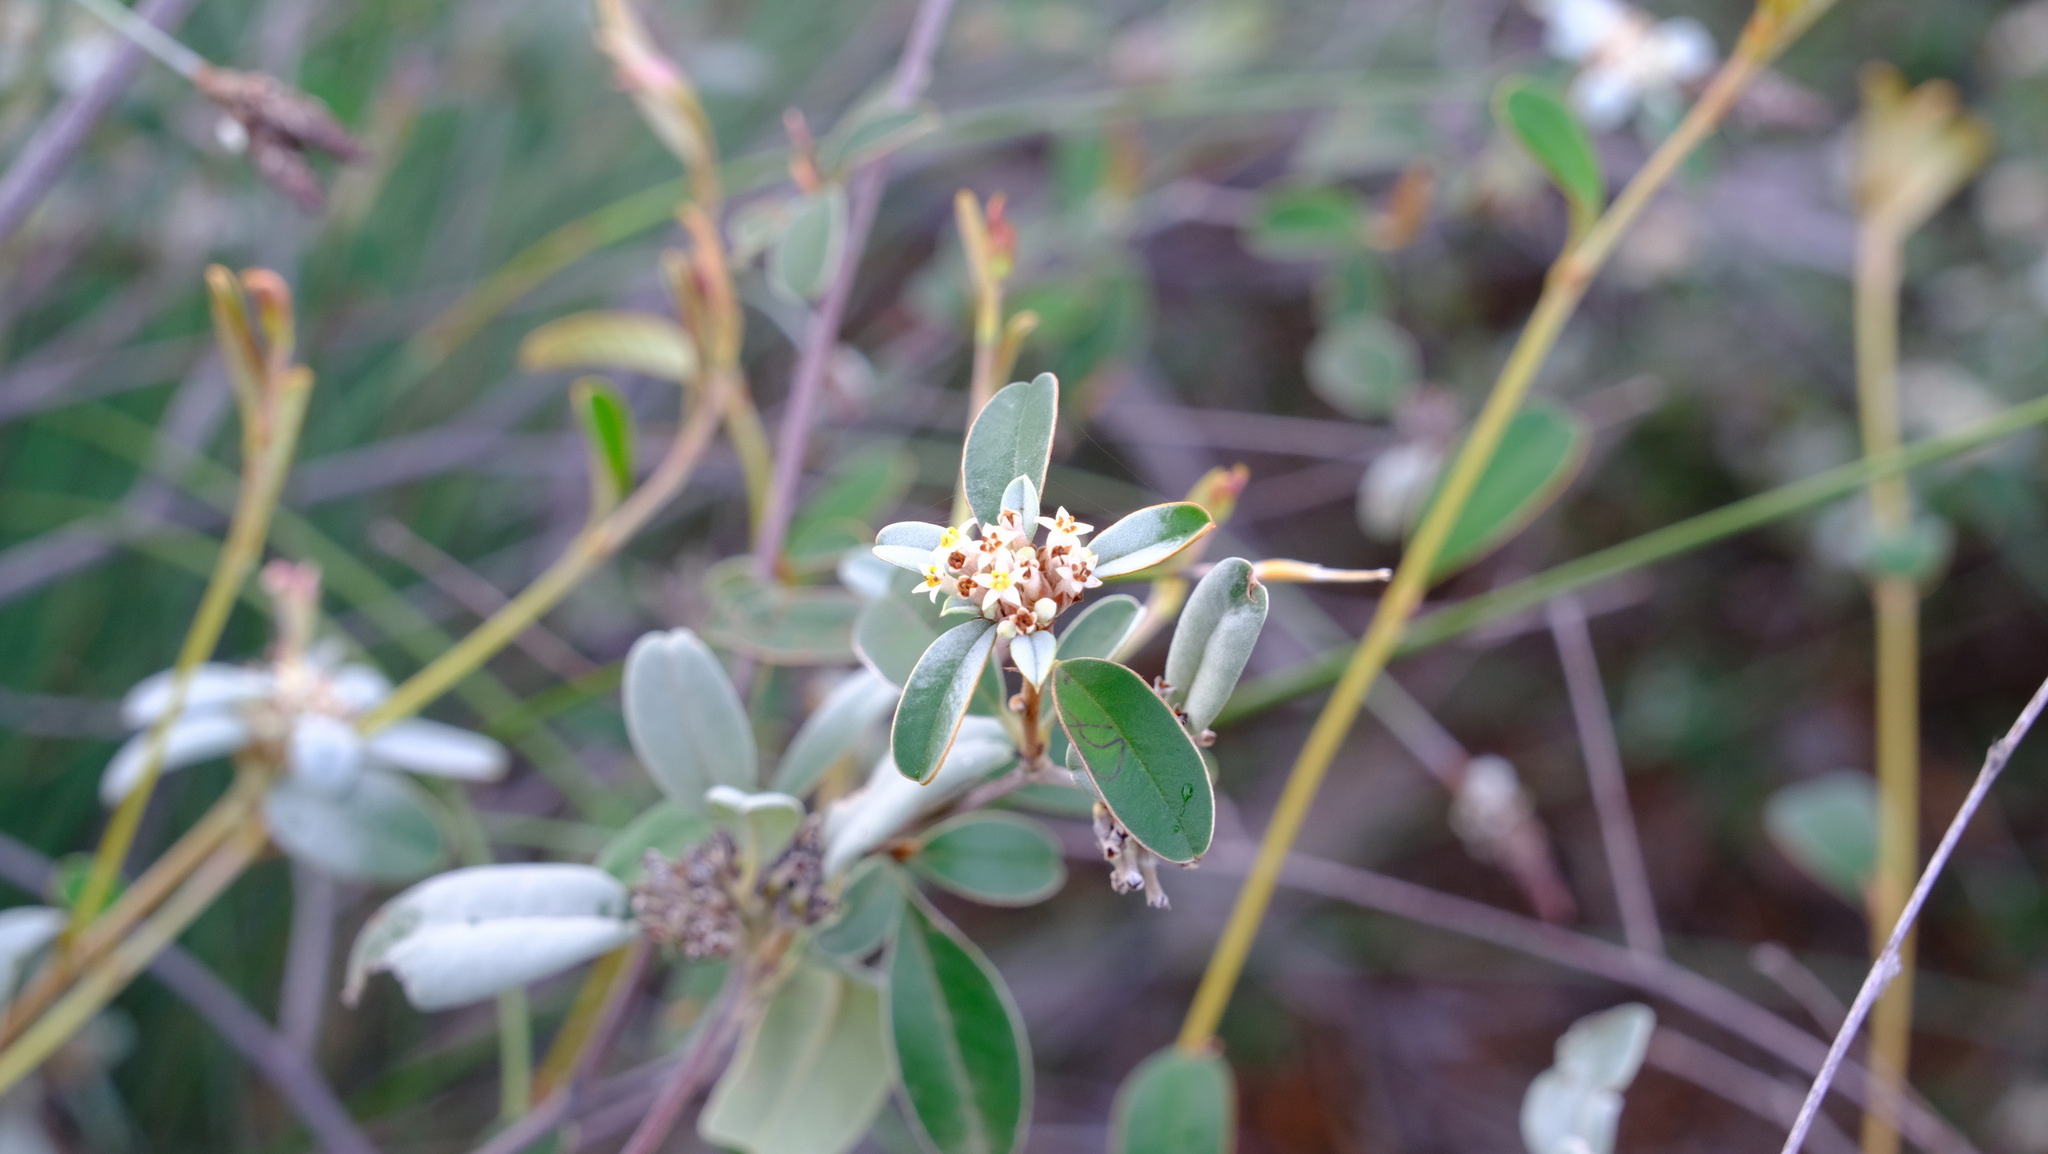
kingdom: Plantae
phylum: Tracheophyta
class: Magnoliopsida
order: Rosales
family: Rhamnaceae
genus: Stenanthemum
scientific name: Stenanthemum pomaderroides
